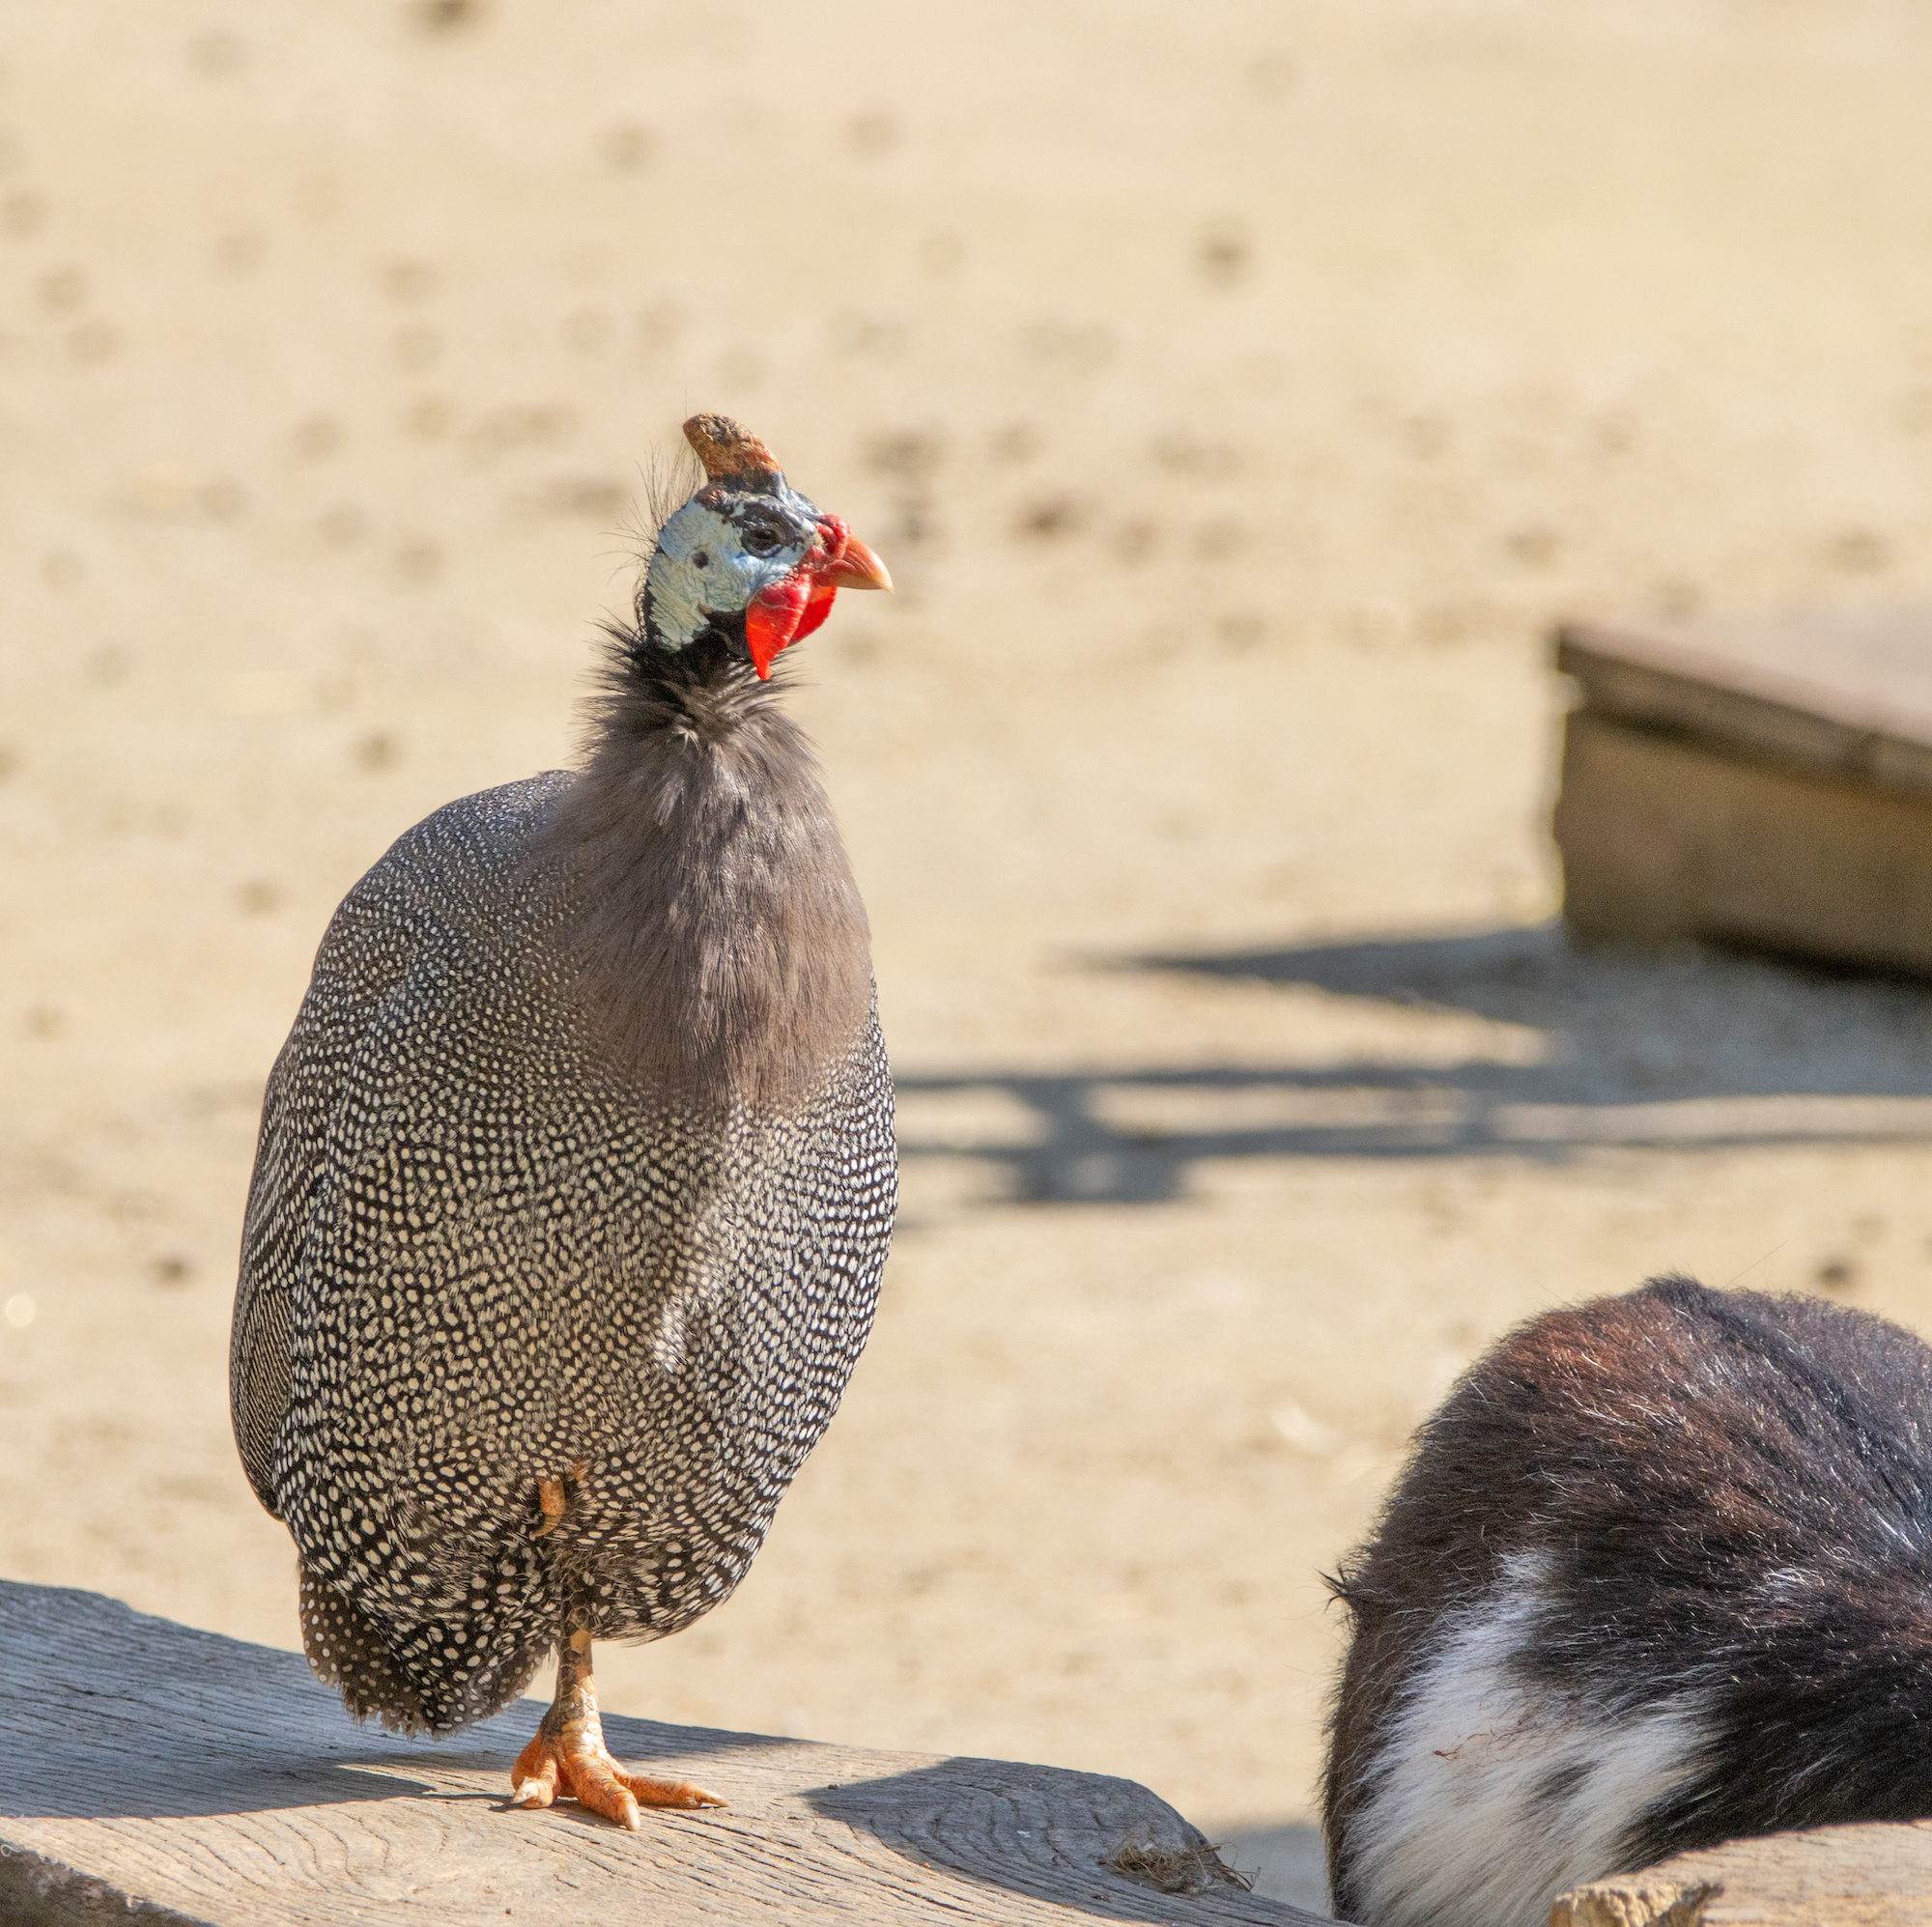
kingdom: Animalia
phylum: Chordata
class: Aves
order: Galliformes
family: Numididae
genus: Numida
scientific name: Numida meleagris
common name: Helmeted guineafowl
